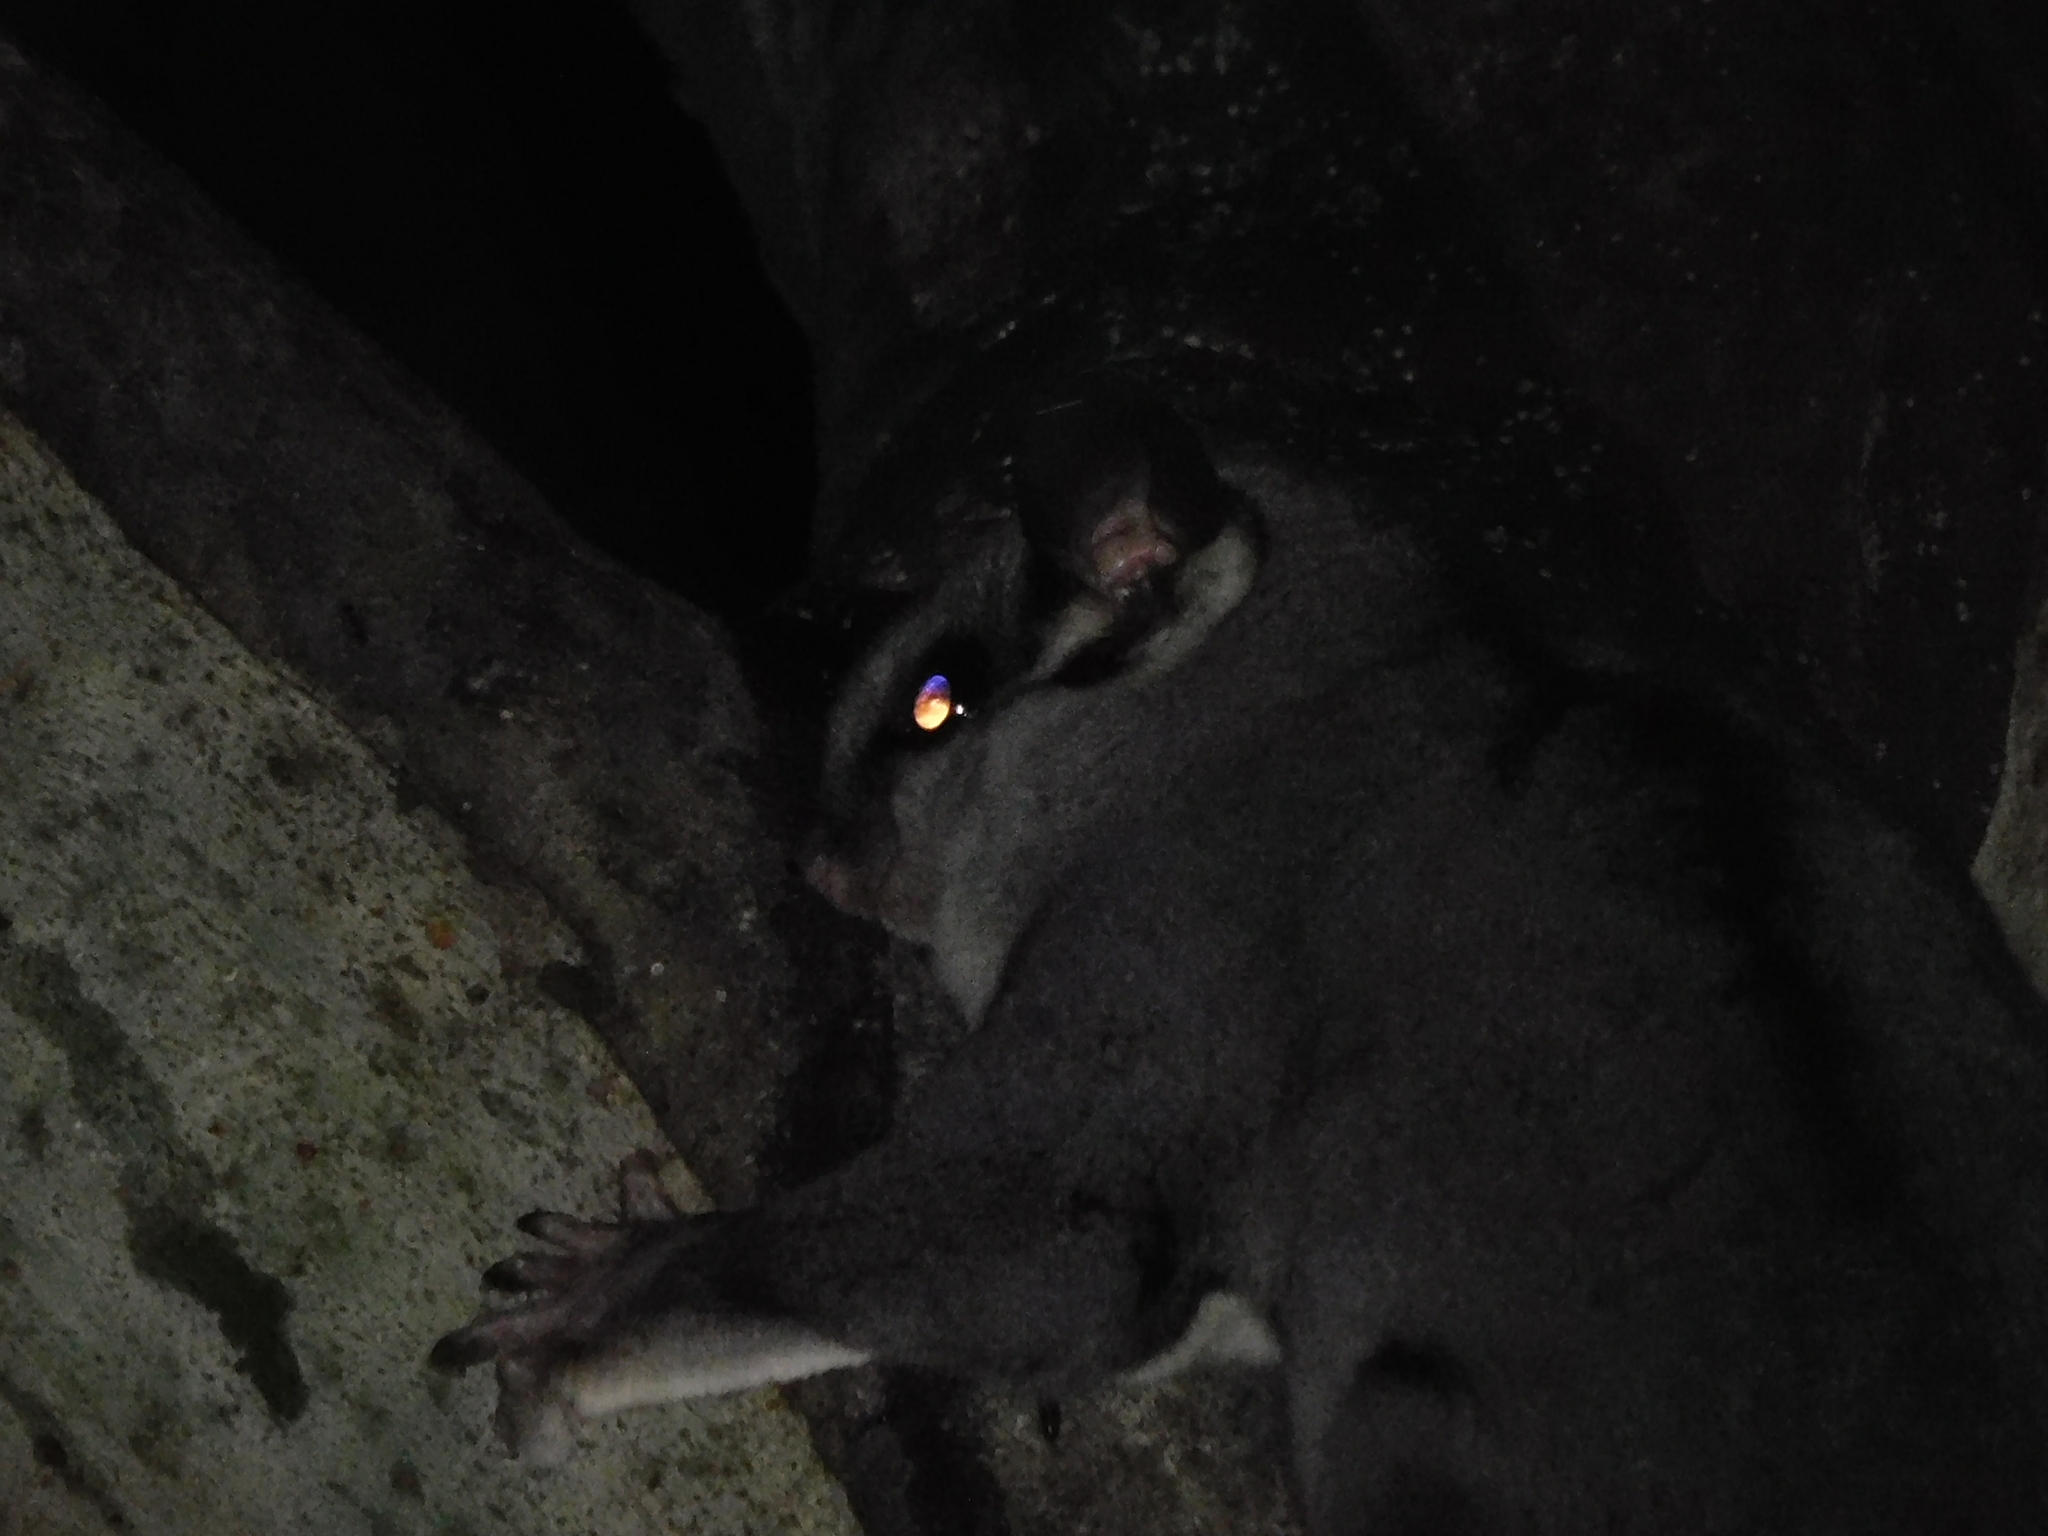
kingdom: Animalia
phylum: Chordata
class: Mammalia
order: Diprotodontia
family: Petauridae
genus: Petaurus
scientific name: Petaurus breviceps
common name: Sugar glider
